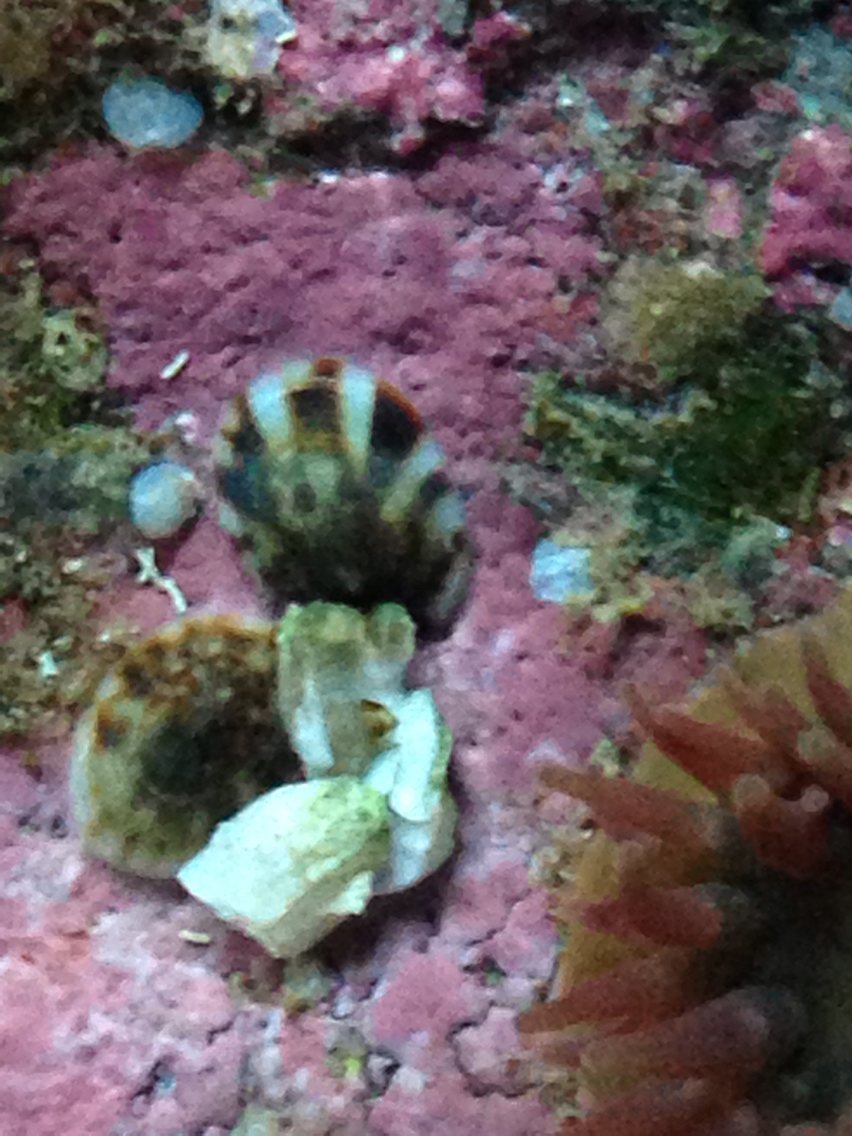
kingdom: Animalia
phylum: Mollusca
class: Gastropoda
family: Lottiidae
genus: Testudinalia
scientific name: Testudinalia testudinalis
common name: Common tortoiseshell limpet
